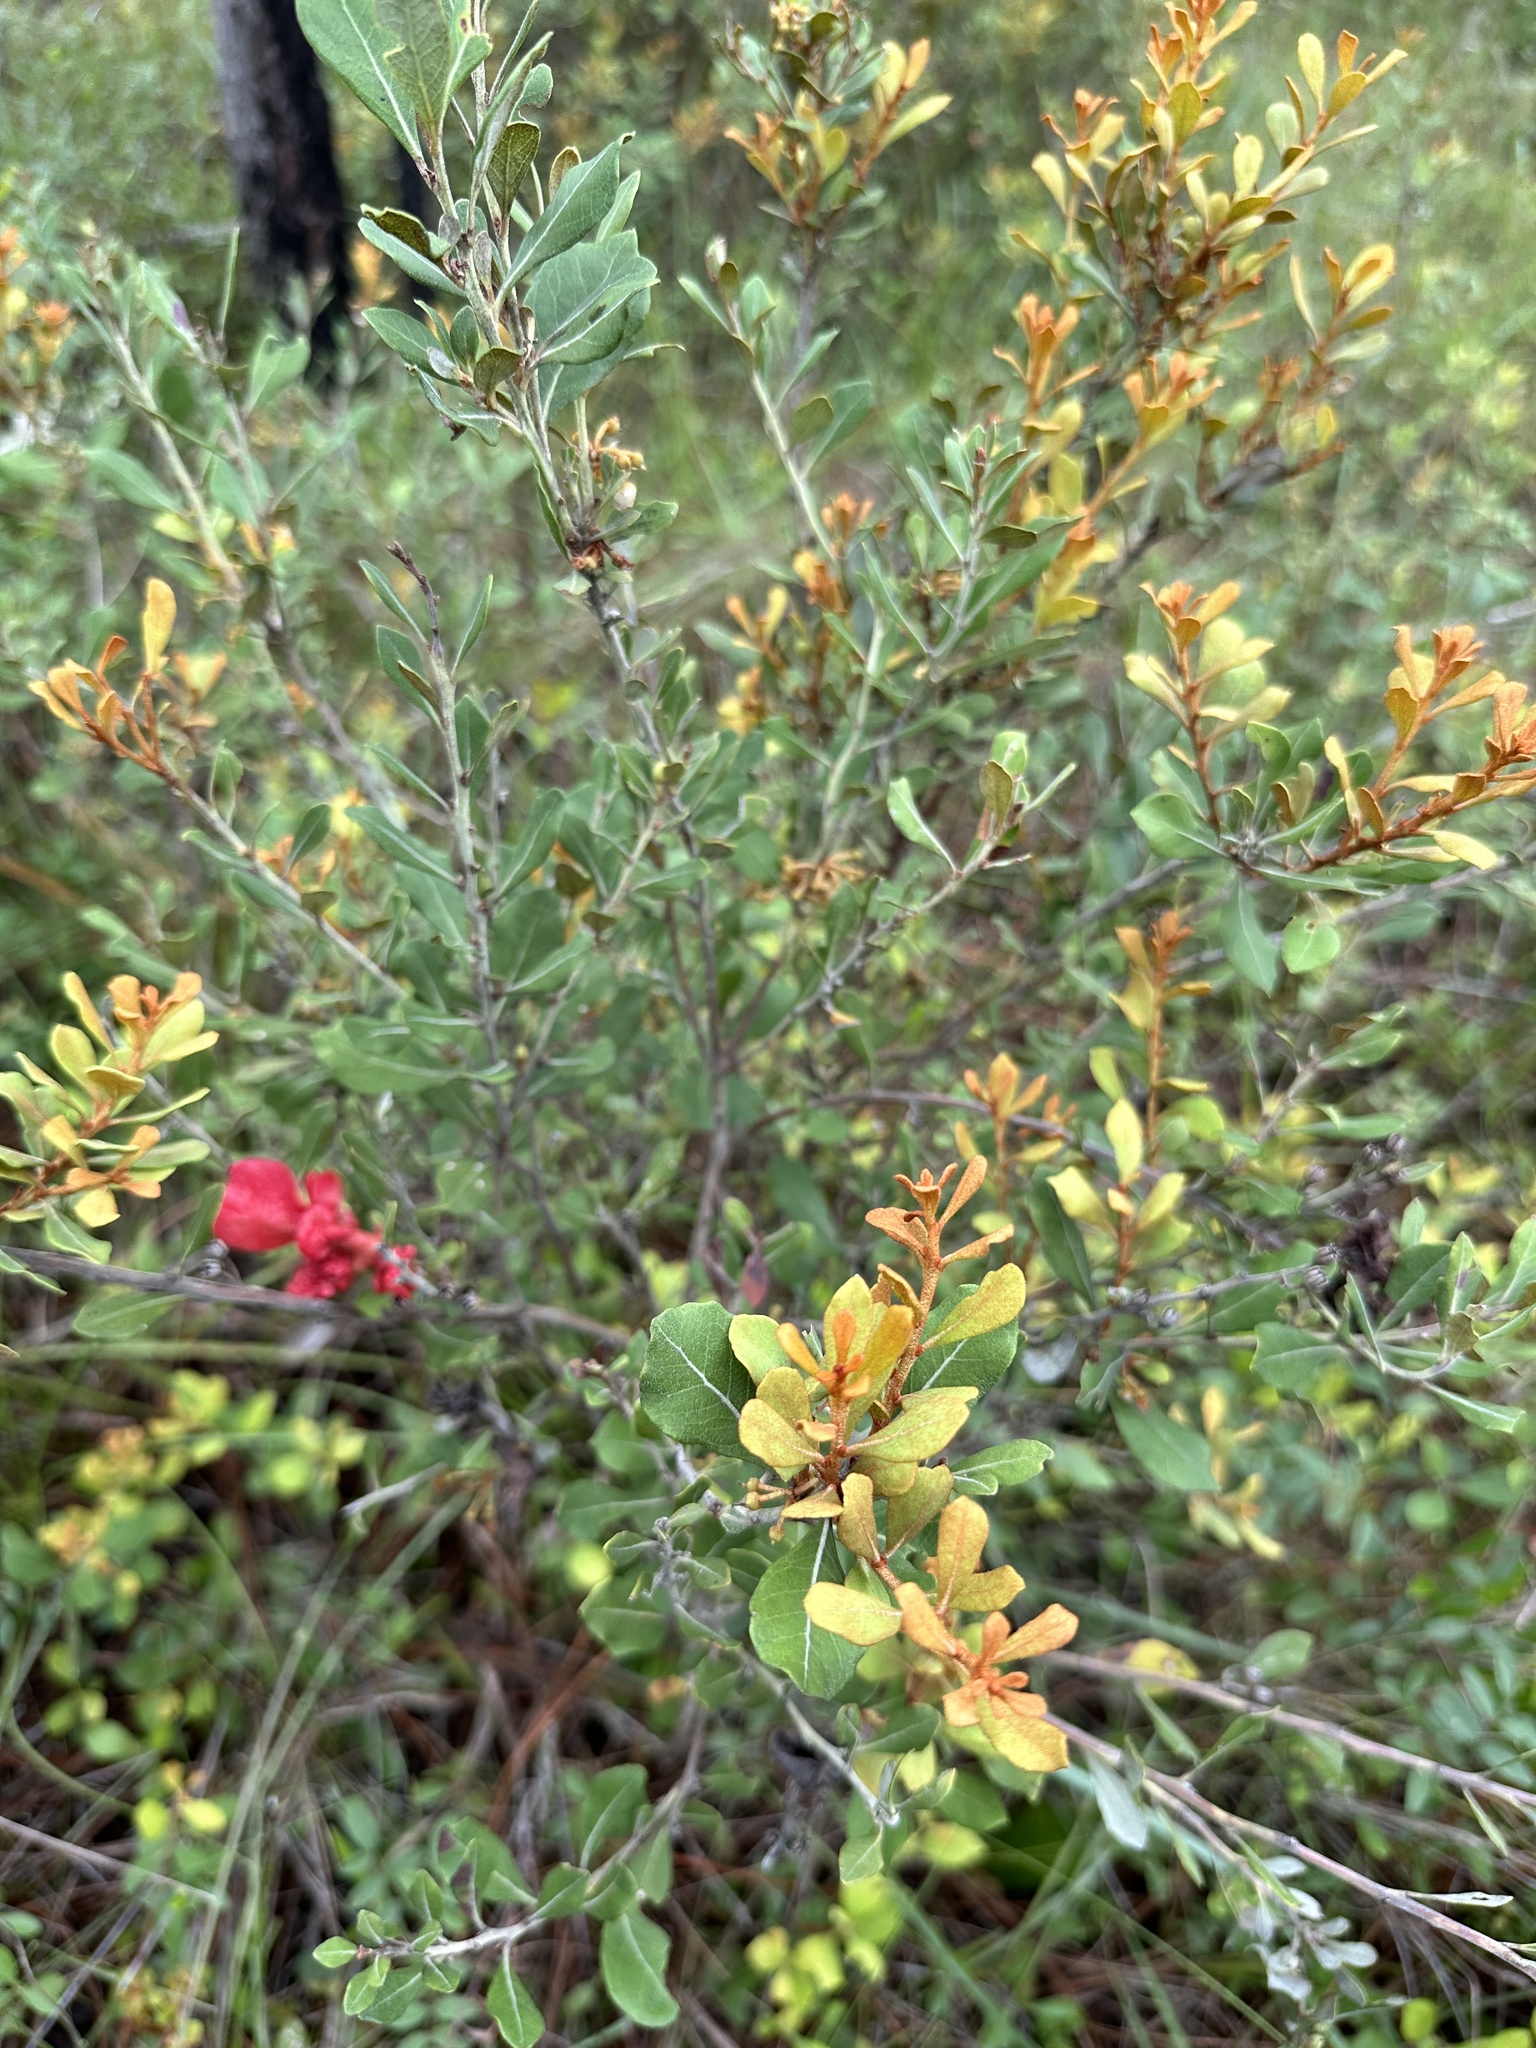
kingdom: Plantae
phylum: Tracheophyta
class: Magnoliopsida
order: Ericales
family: Ericaceae
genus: Lyonia
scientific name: Lyonia fruticosa
